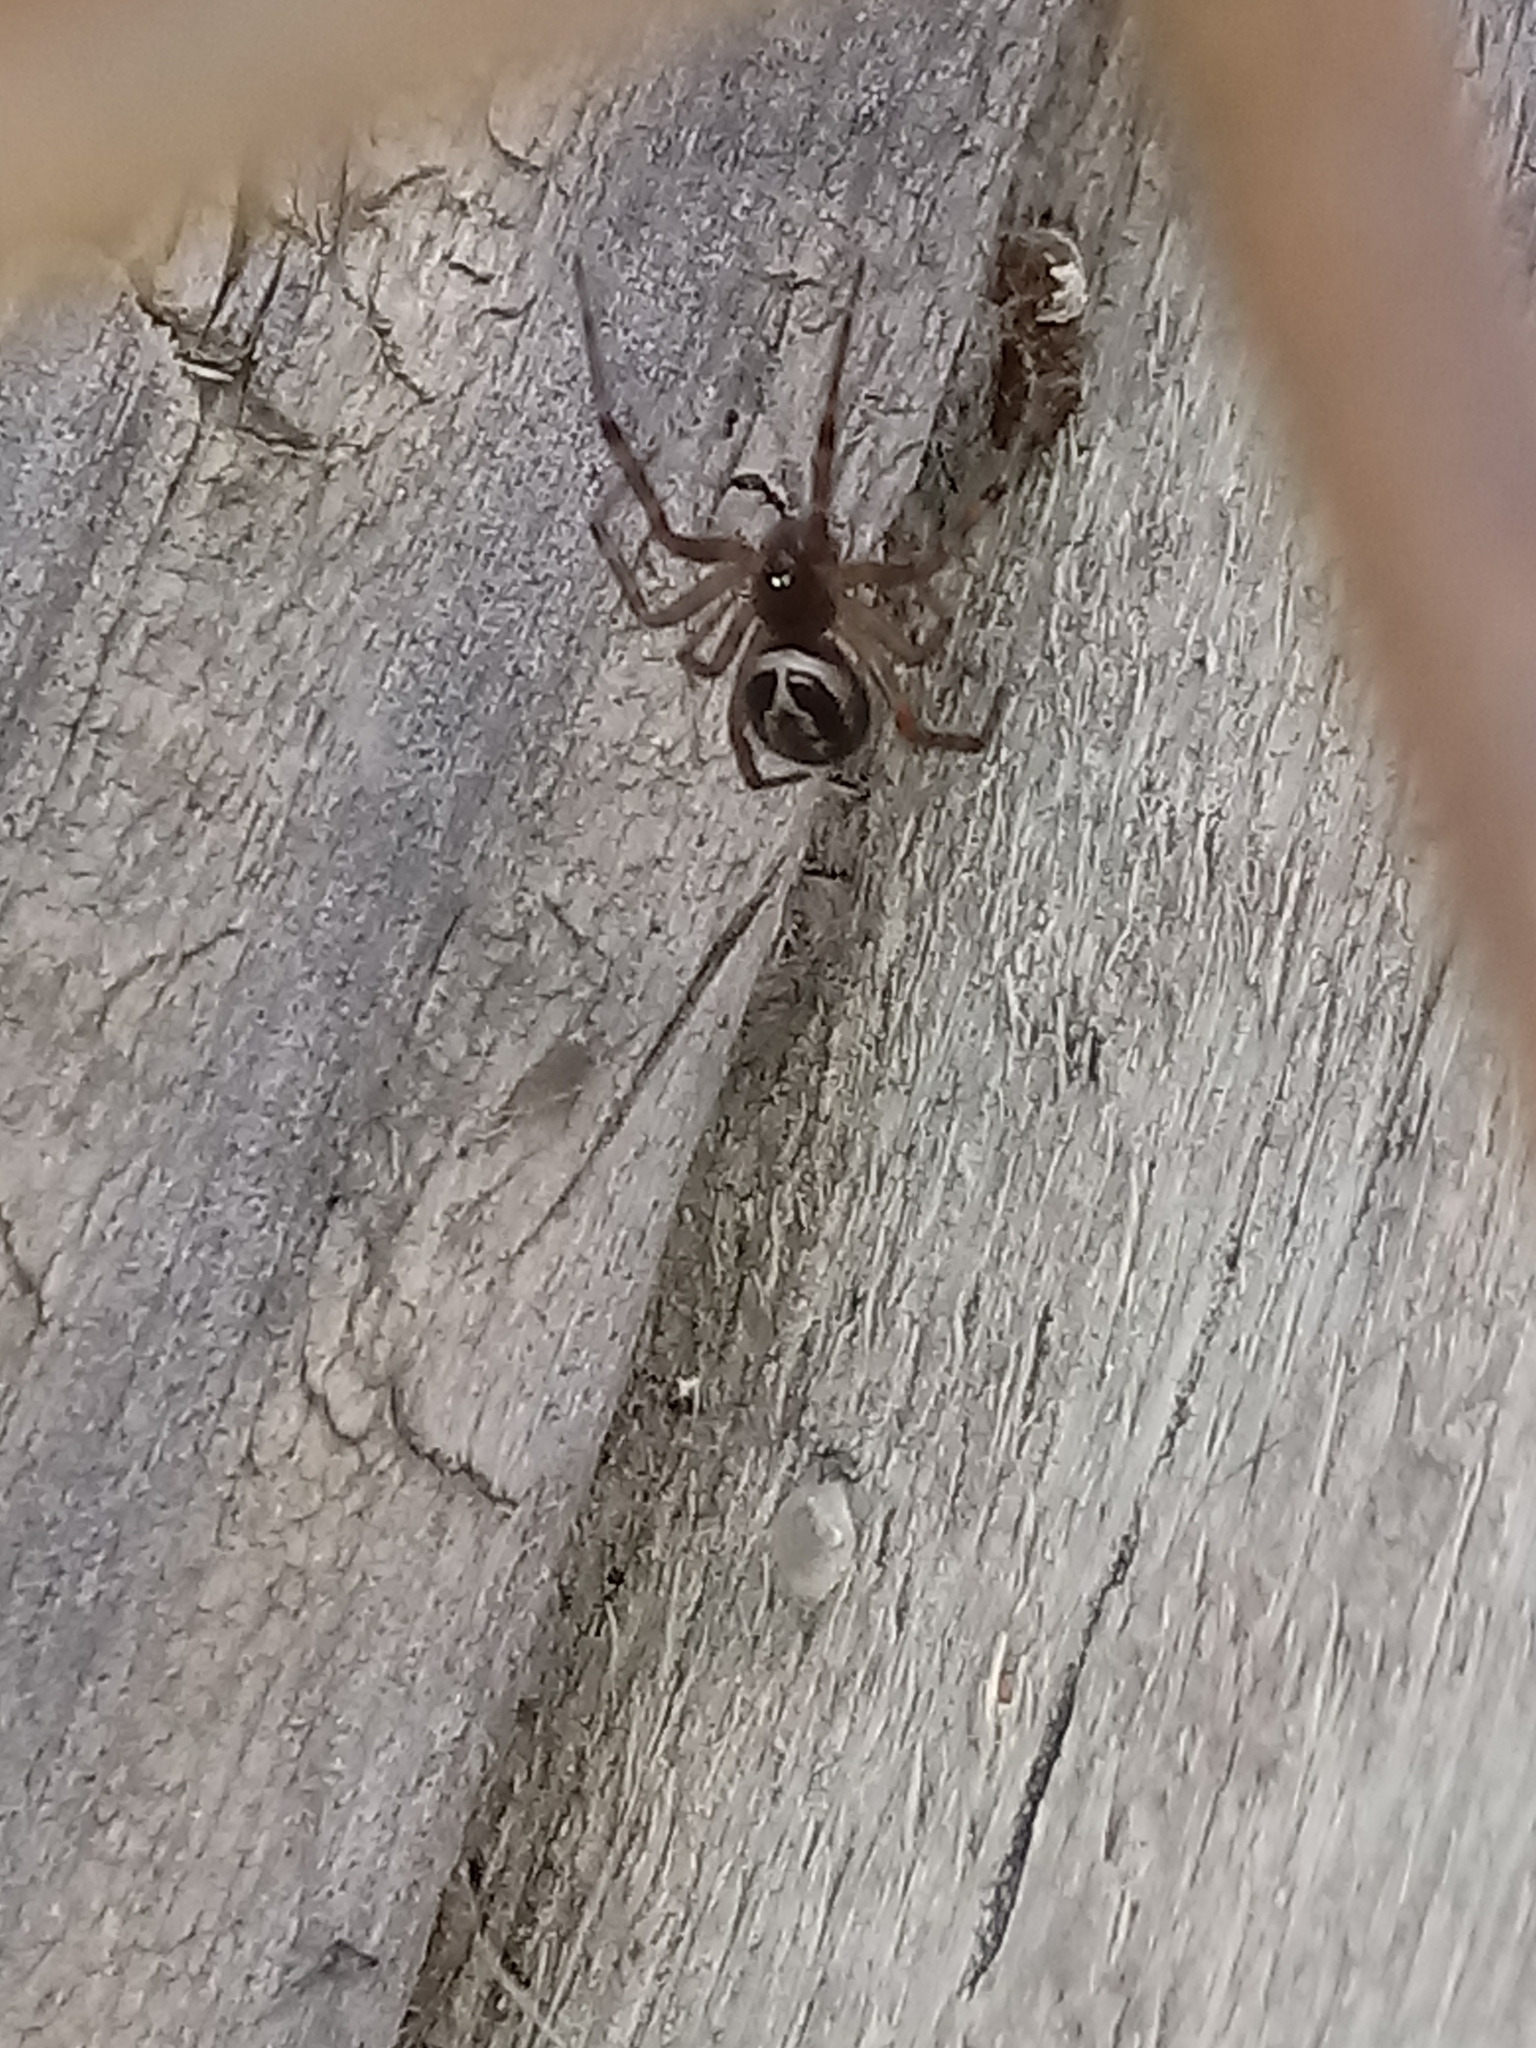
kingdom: Animalia
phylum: Arthropoda
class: Arachnida
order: Araneae
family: Theridiidae
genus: Steatoda
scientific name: Steatoda nobilis
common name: Cobweb weaver
